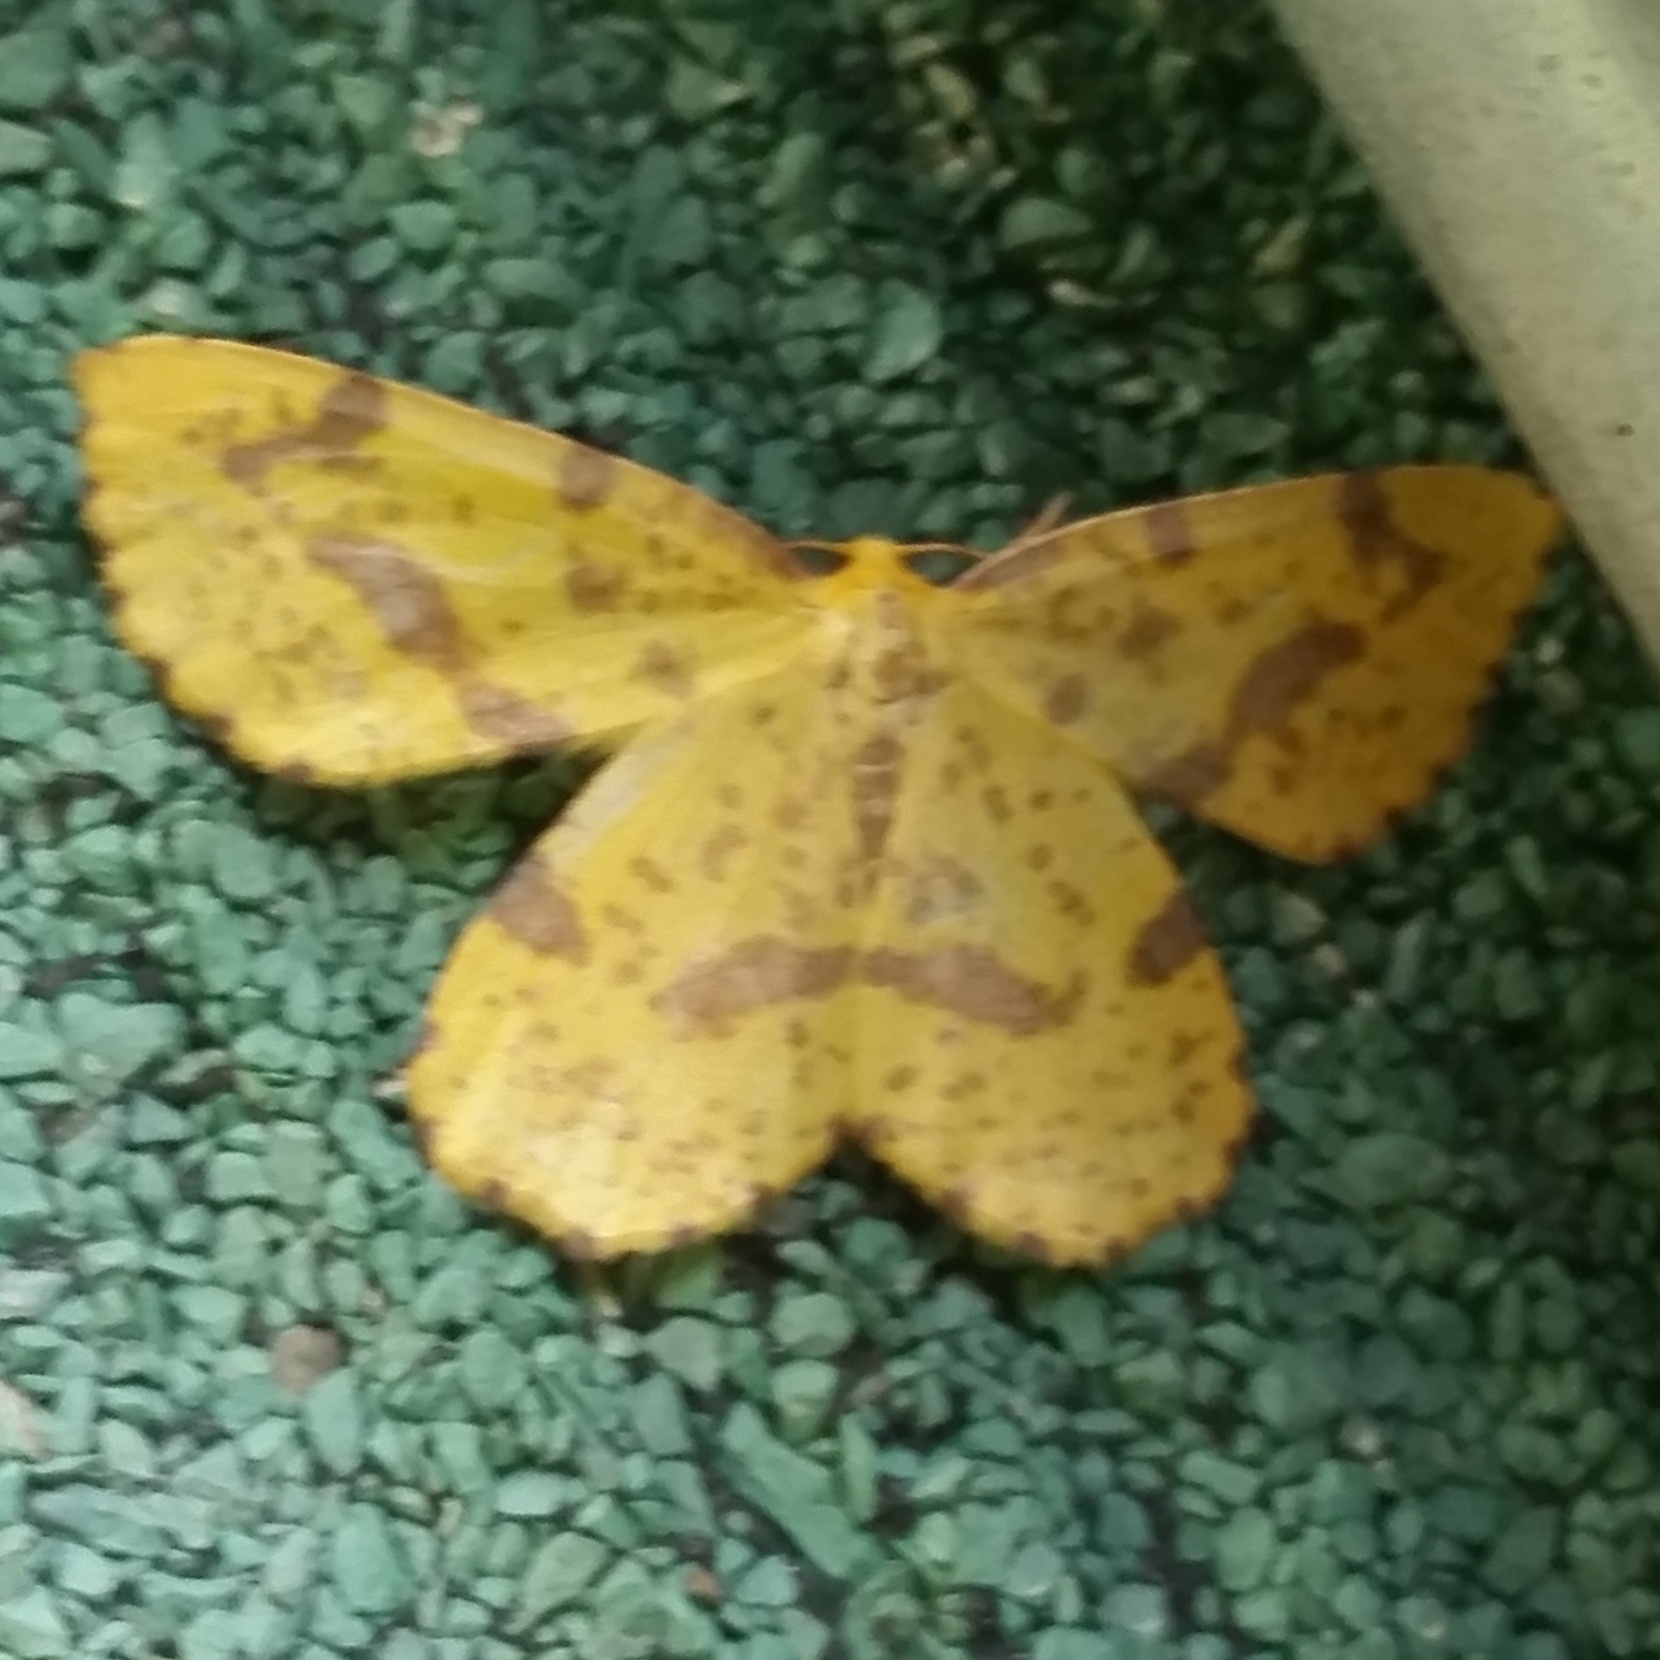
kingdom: Animalia
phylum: Arthropoda
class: Insecta
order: Lepidoptera
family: Geometridae
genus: Xanthotype
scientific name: Xanthotype
